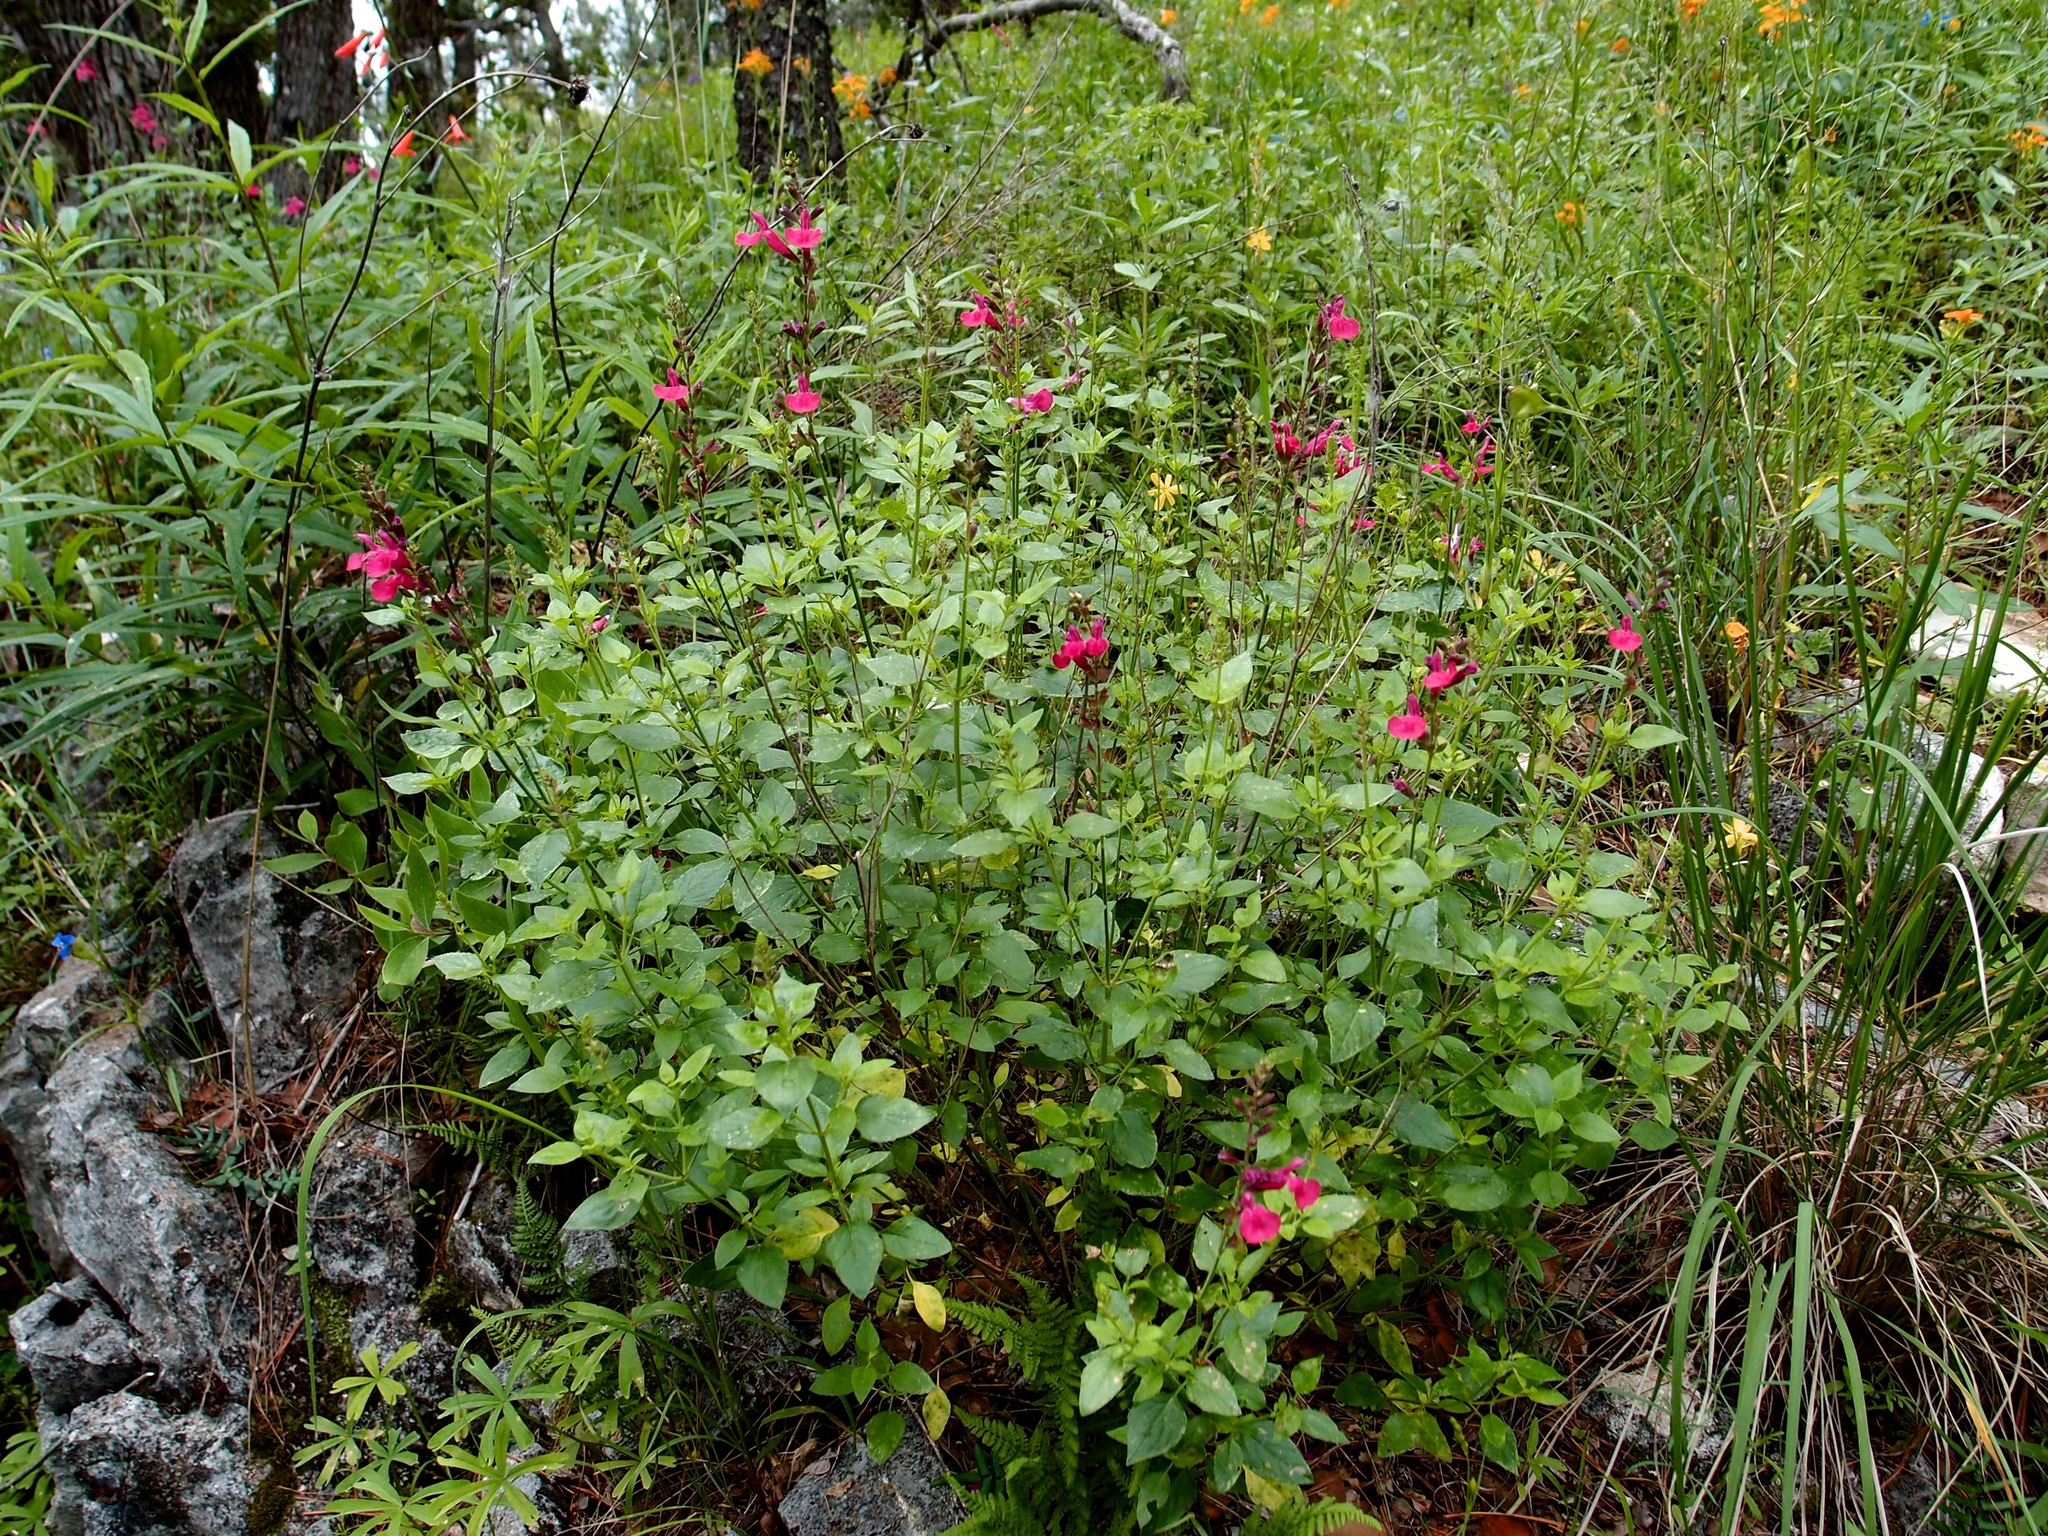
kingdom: Plantae
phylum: Tracheophyta
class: Magnoliopsida
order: Lamiales
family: Lamiaceae
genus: Salvia
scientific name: Salvia microphylla
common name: Baby sage
